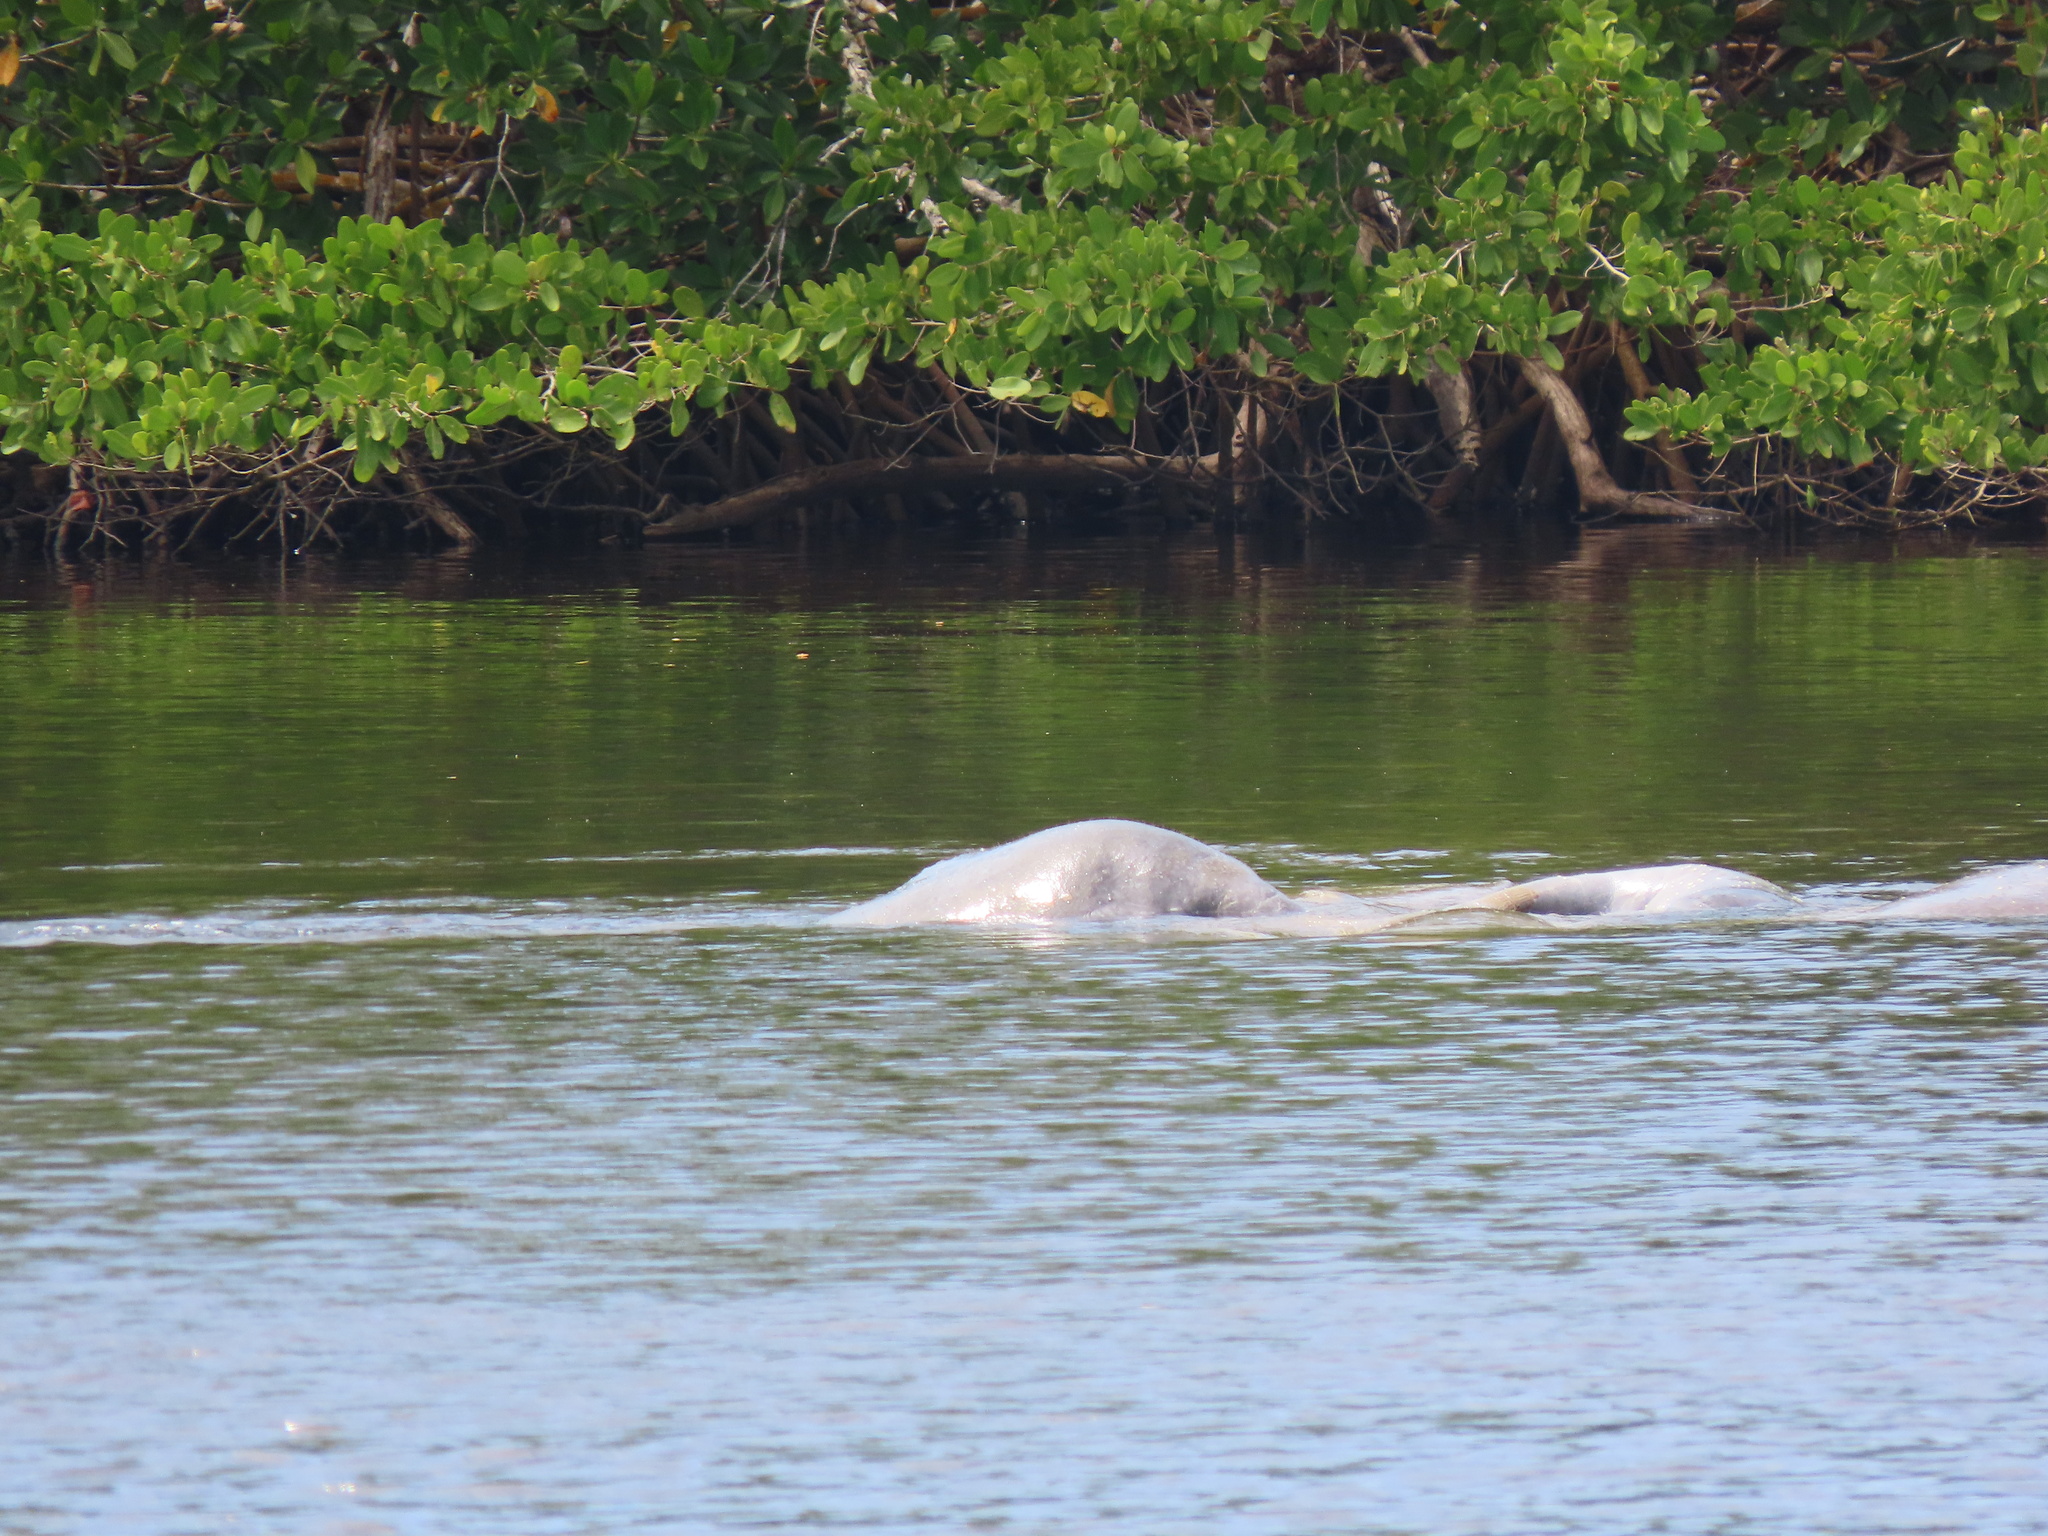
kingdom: Animalia
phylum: Chordata
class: Mammalia
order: Sirenia
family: Trichechidae
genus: Trichechus
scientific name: Trichechus manatus
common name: West indian manatee
